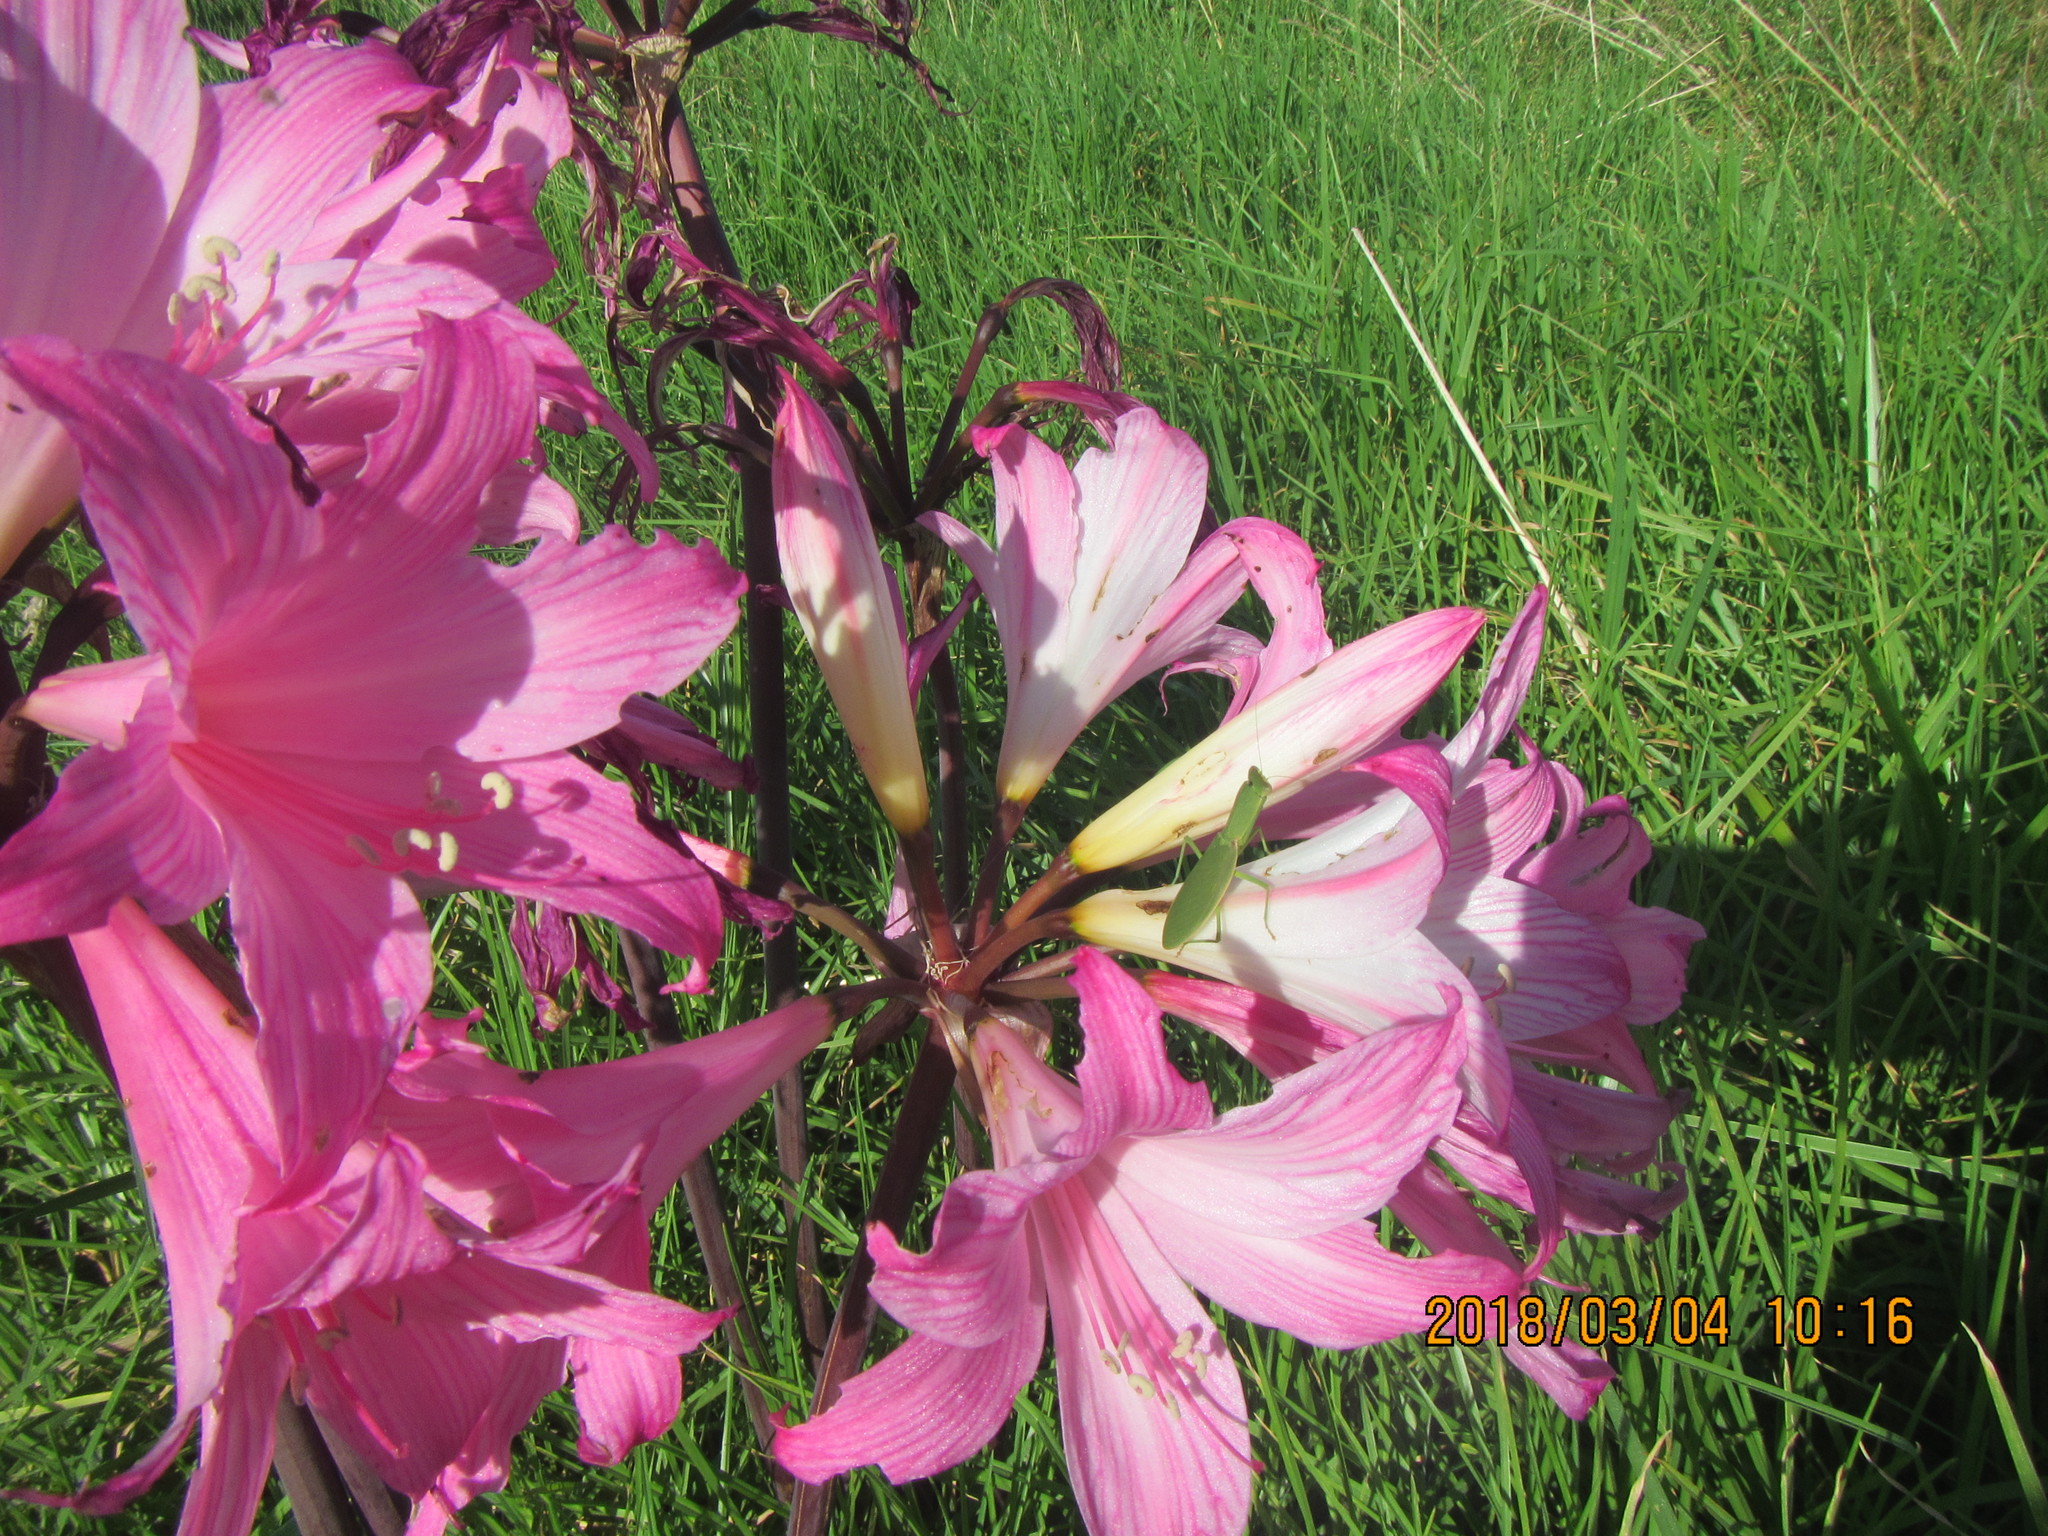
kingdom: Animalia
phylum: Arthropoda
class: Insecta
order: Mantodea
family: Mantidae
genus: Orthodera
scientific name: Orthodera novaezealandiae
